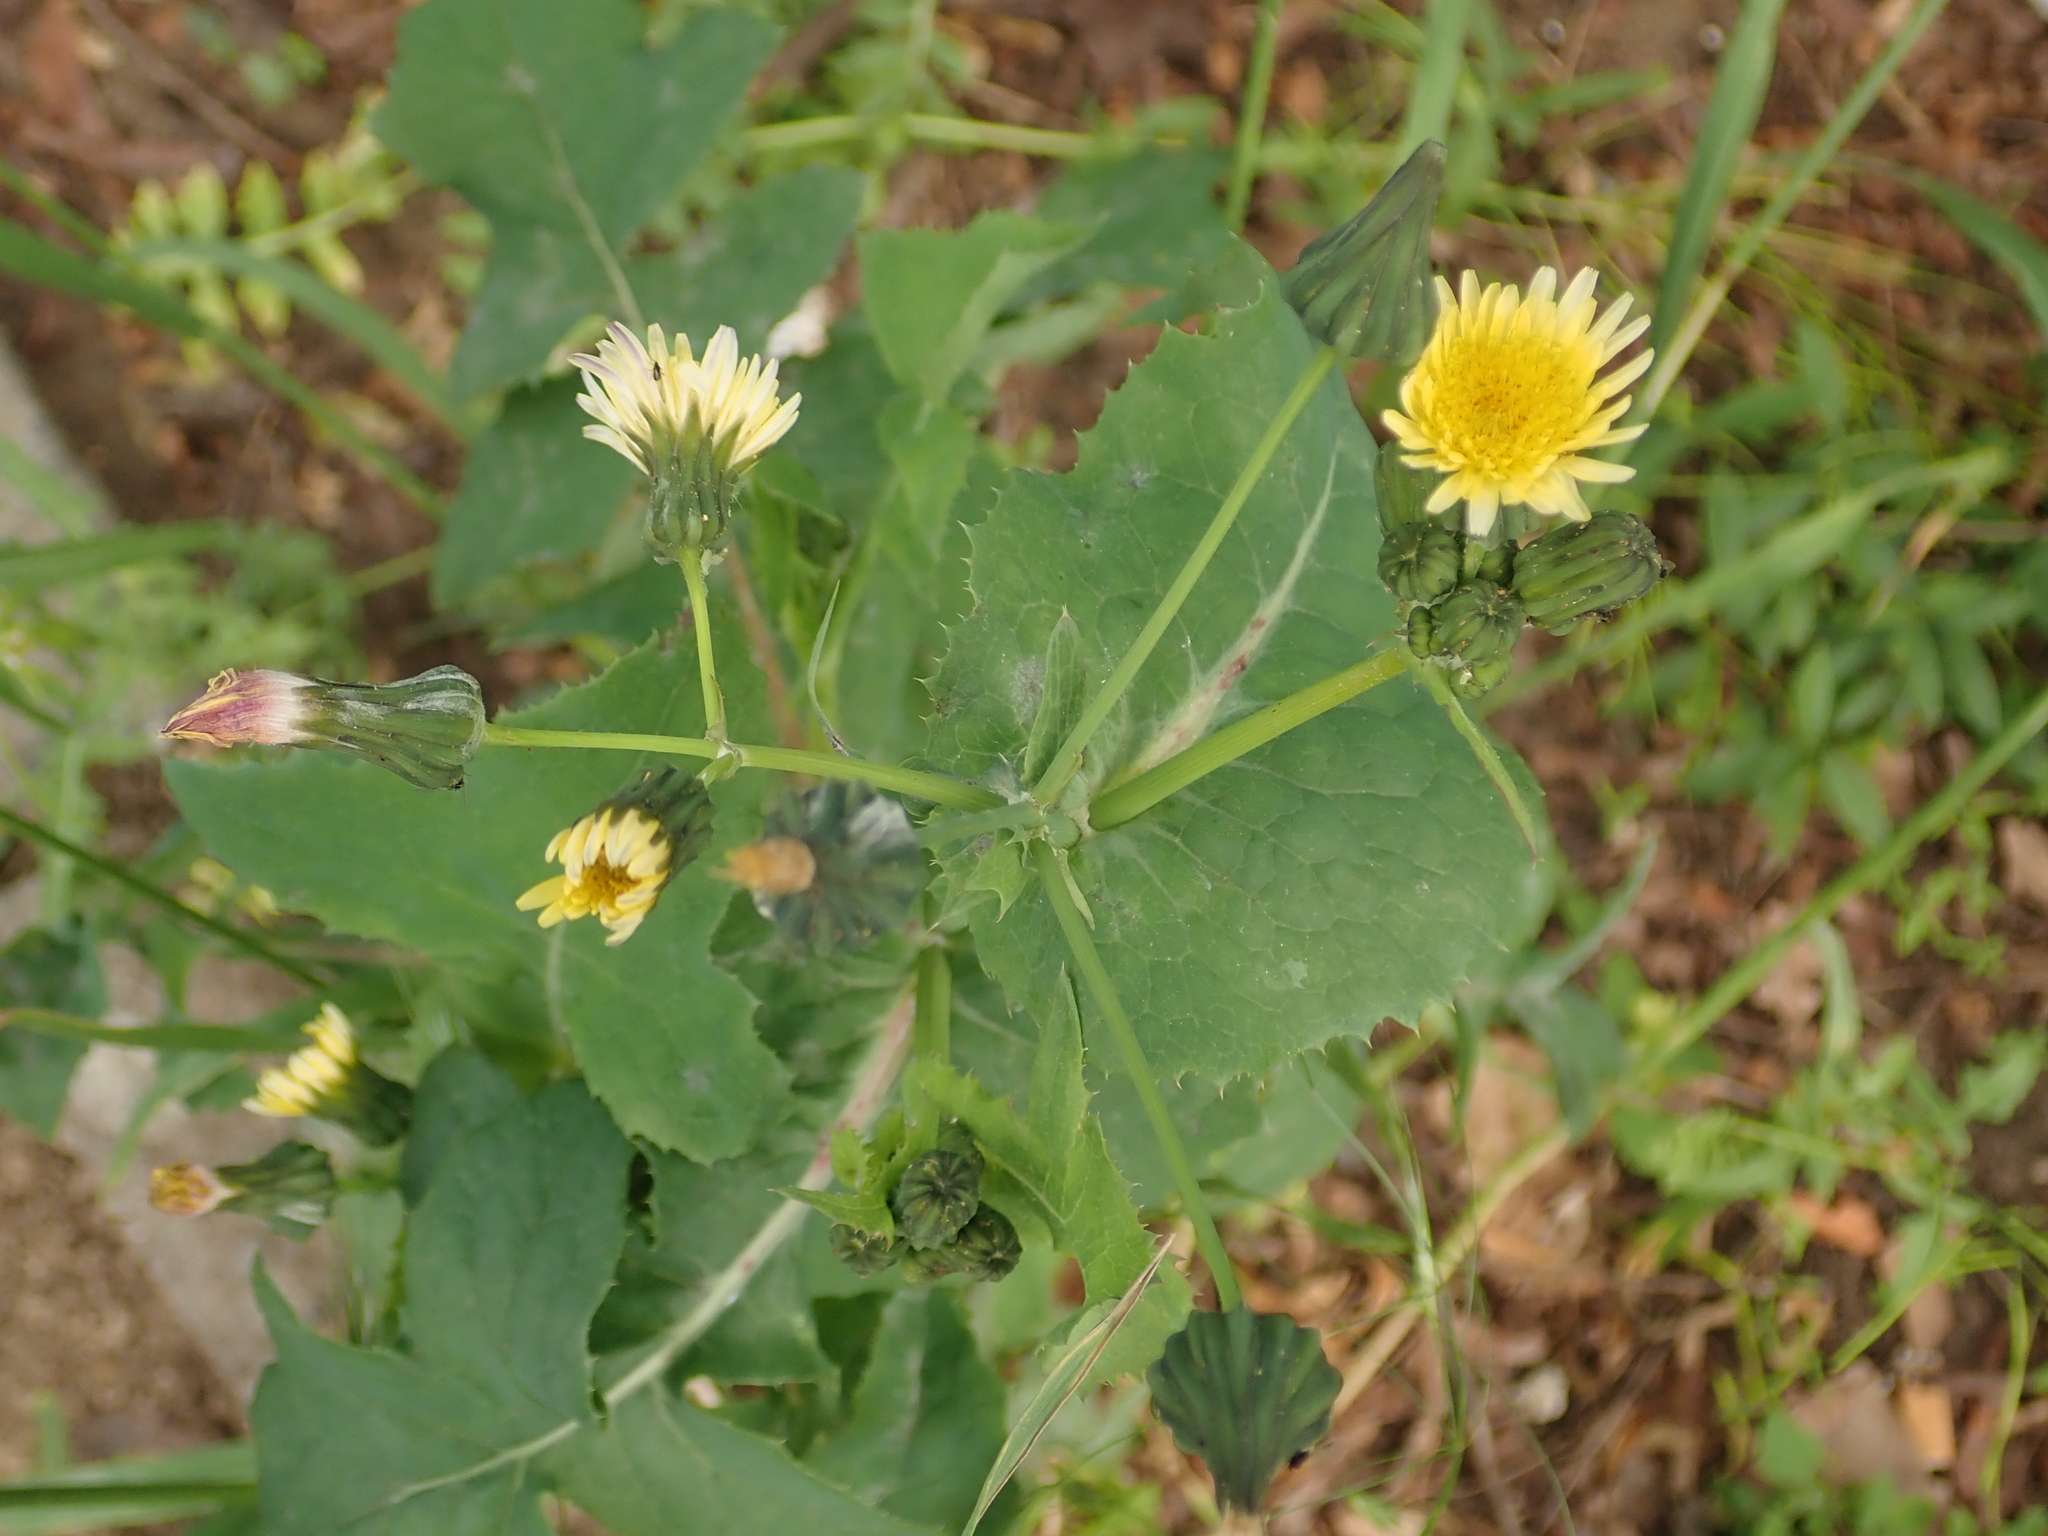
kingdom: Plantae
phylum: Tracheophyta
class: Magnoliopsida
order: Asterales
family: Asteraceae
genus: Sonchus
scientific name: Sonchus oleraceus
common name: Common sowthistle
